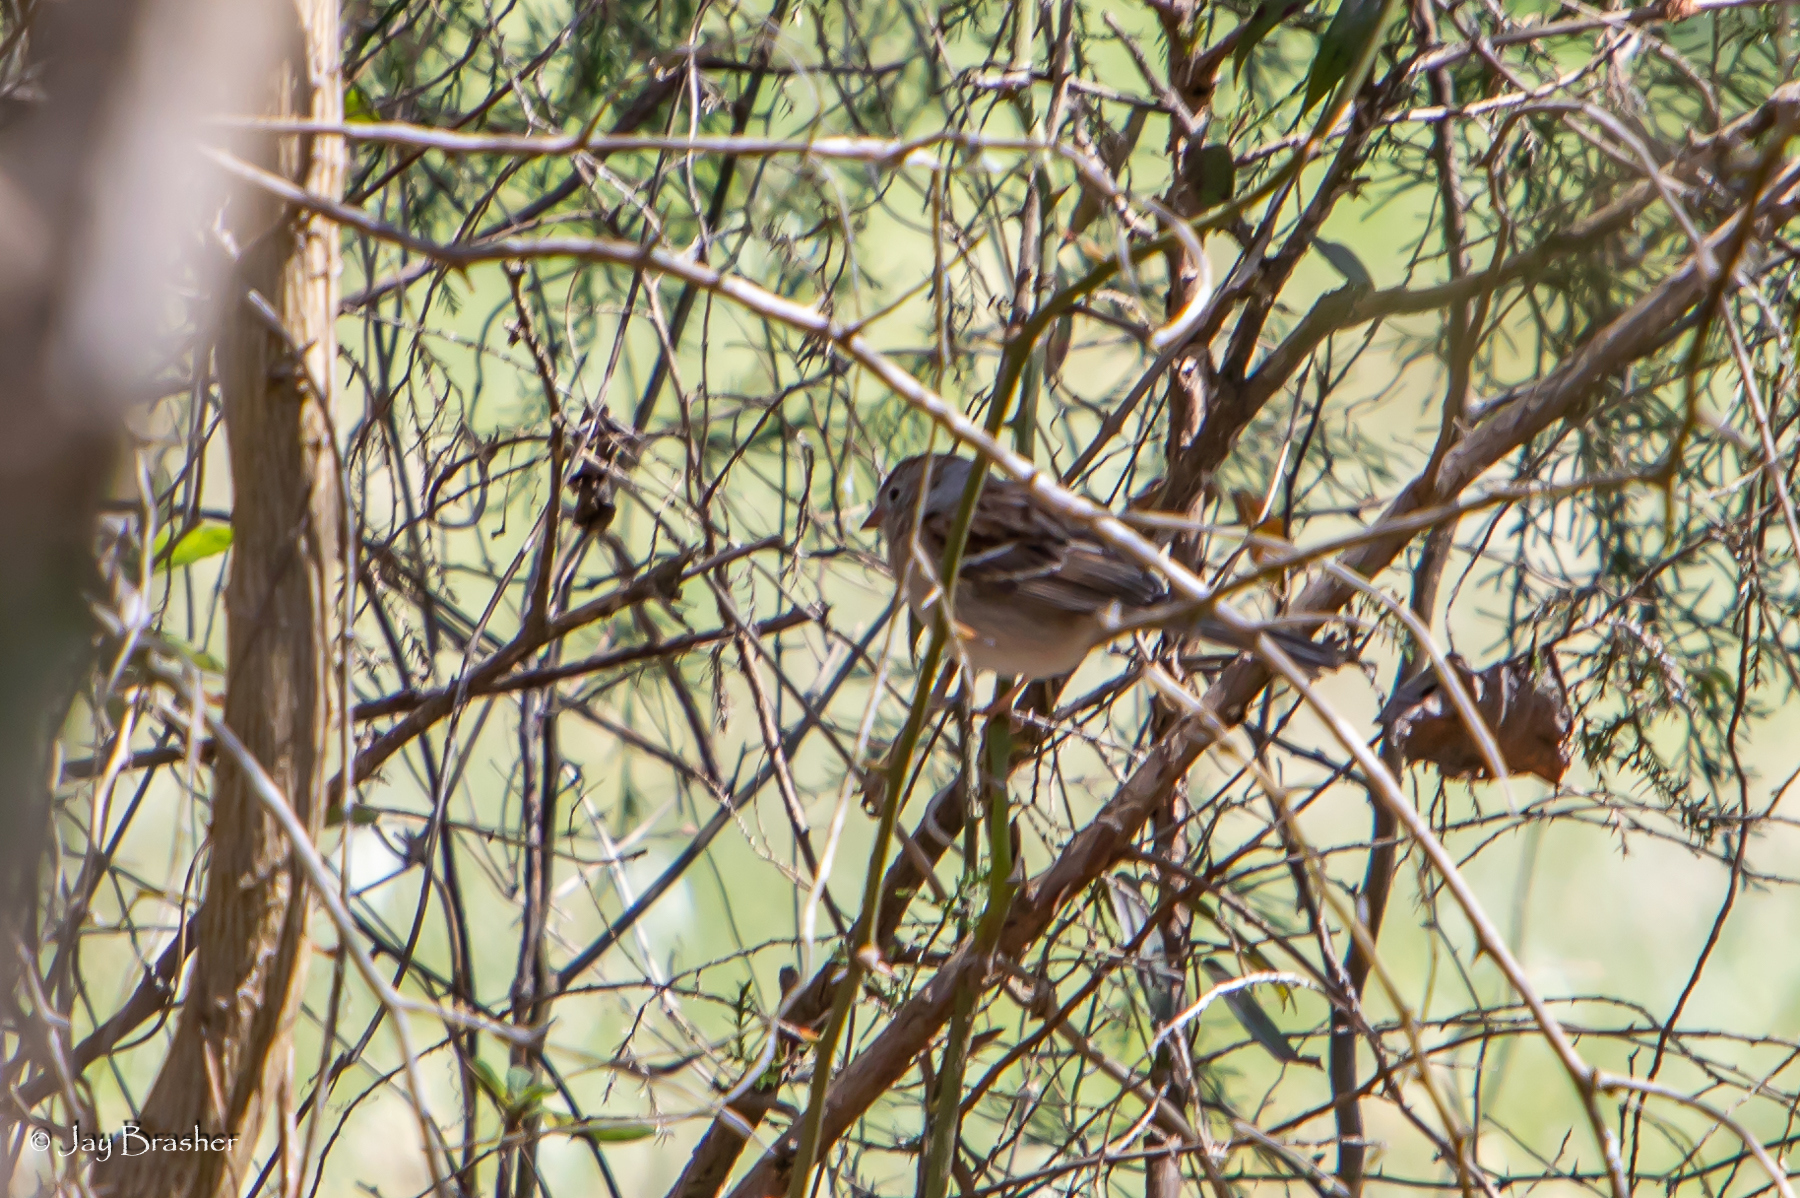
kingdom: Animalia
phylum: Chordata
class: Aves
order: Passeriformes
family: Passerellidae
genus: Spizella
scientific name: Spizella pusilla
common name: Field sparrow
